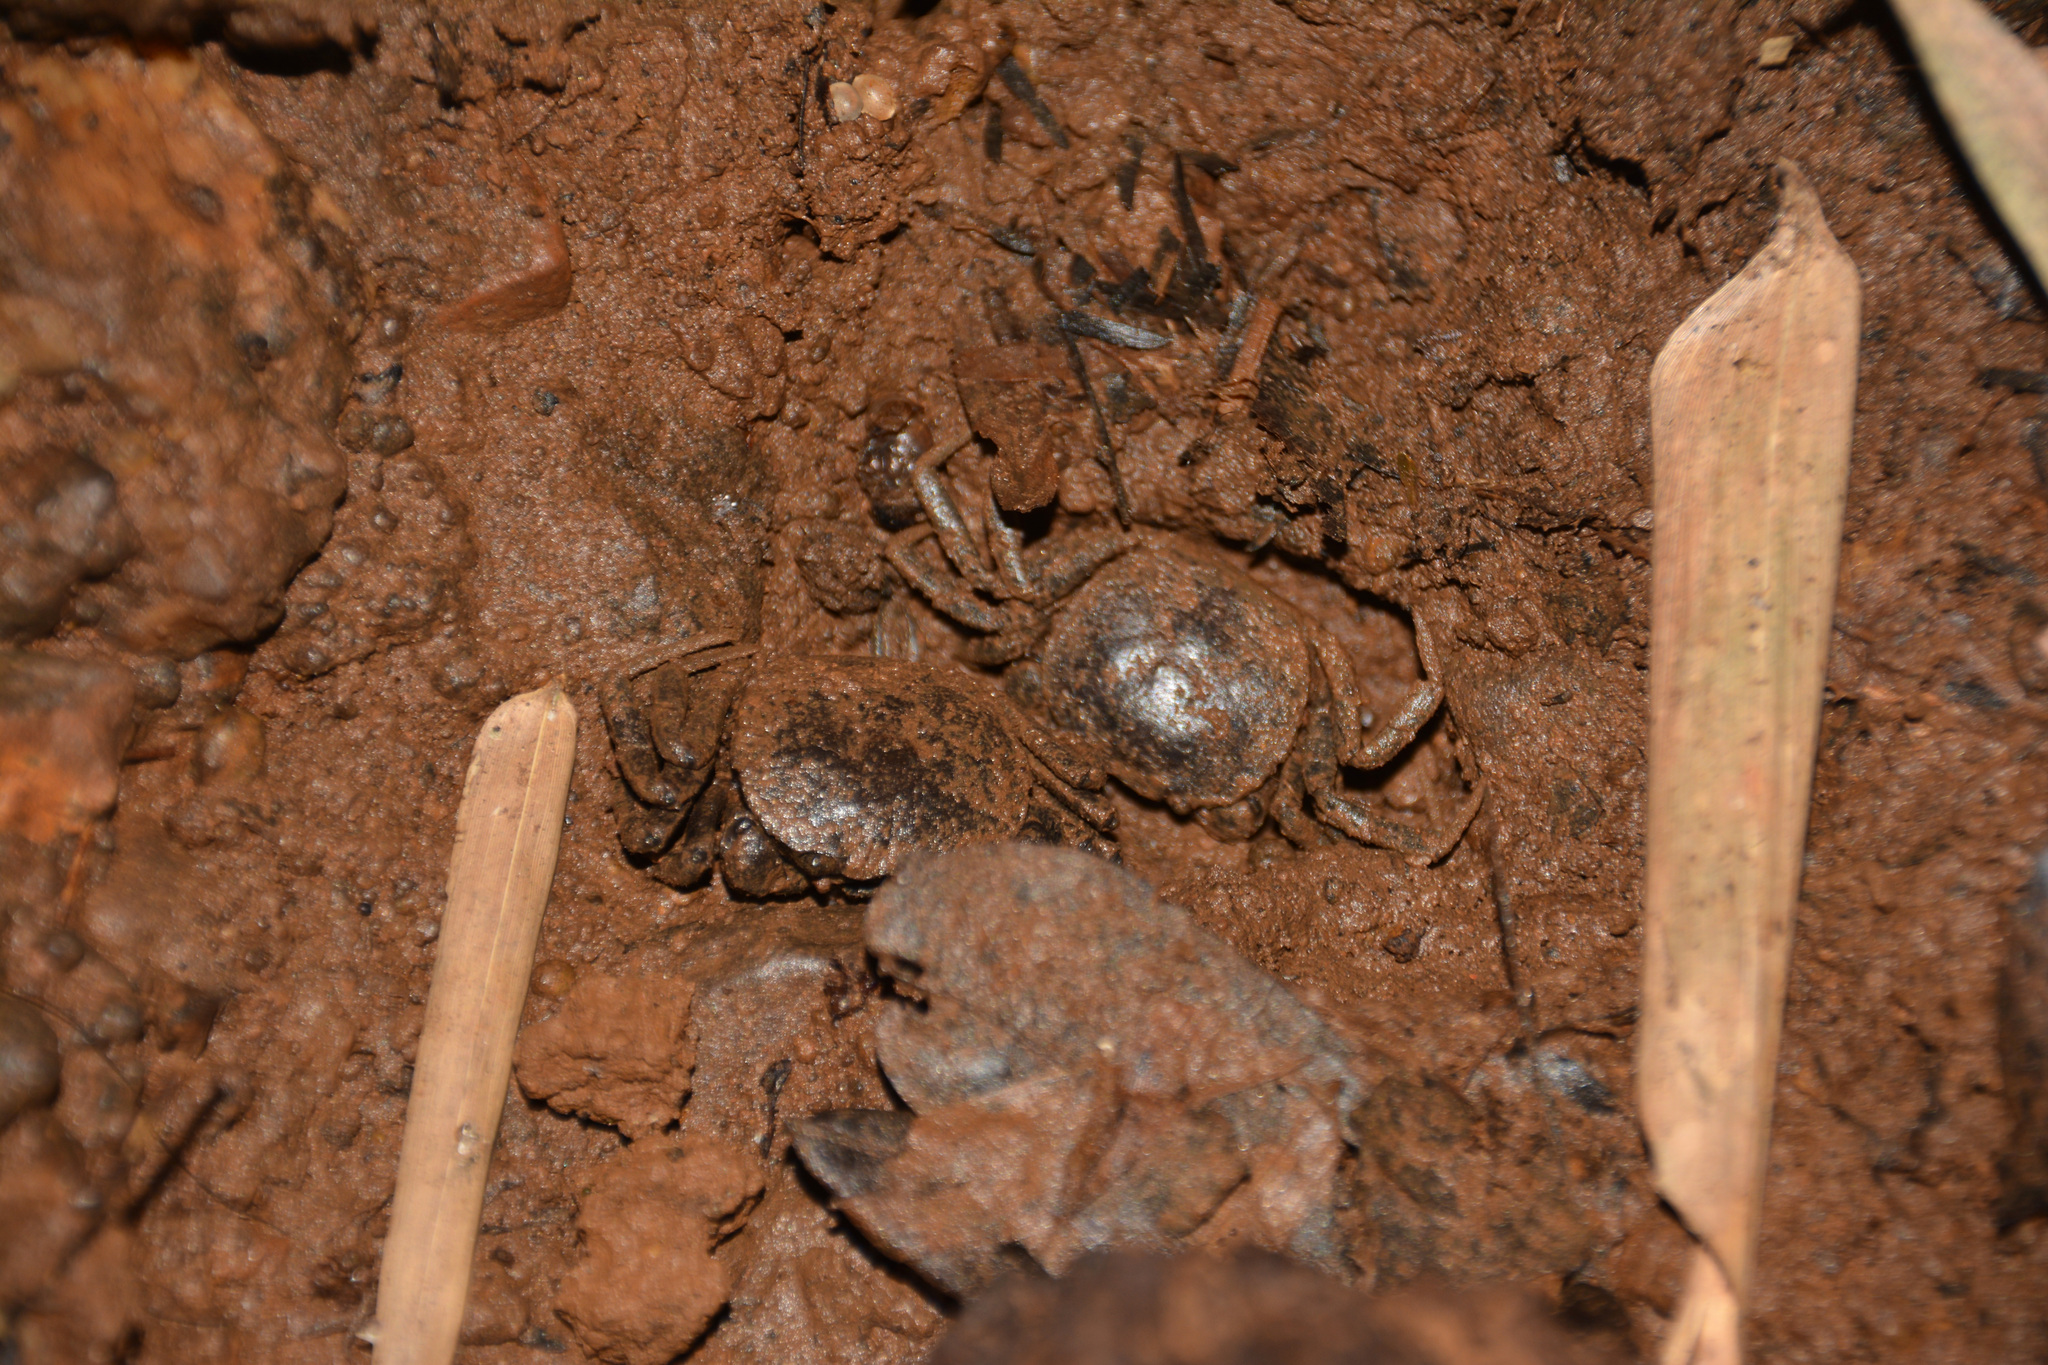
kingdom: Animalia
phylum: Arthropoda
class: Malacostraca
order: Decapoda
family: Trichodactylidae
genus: Trichodactylus
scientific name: Trichodactylus kensleyi
